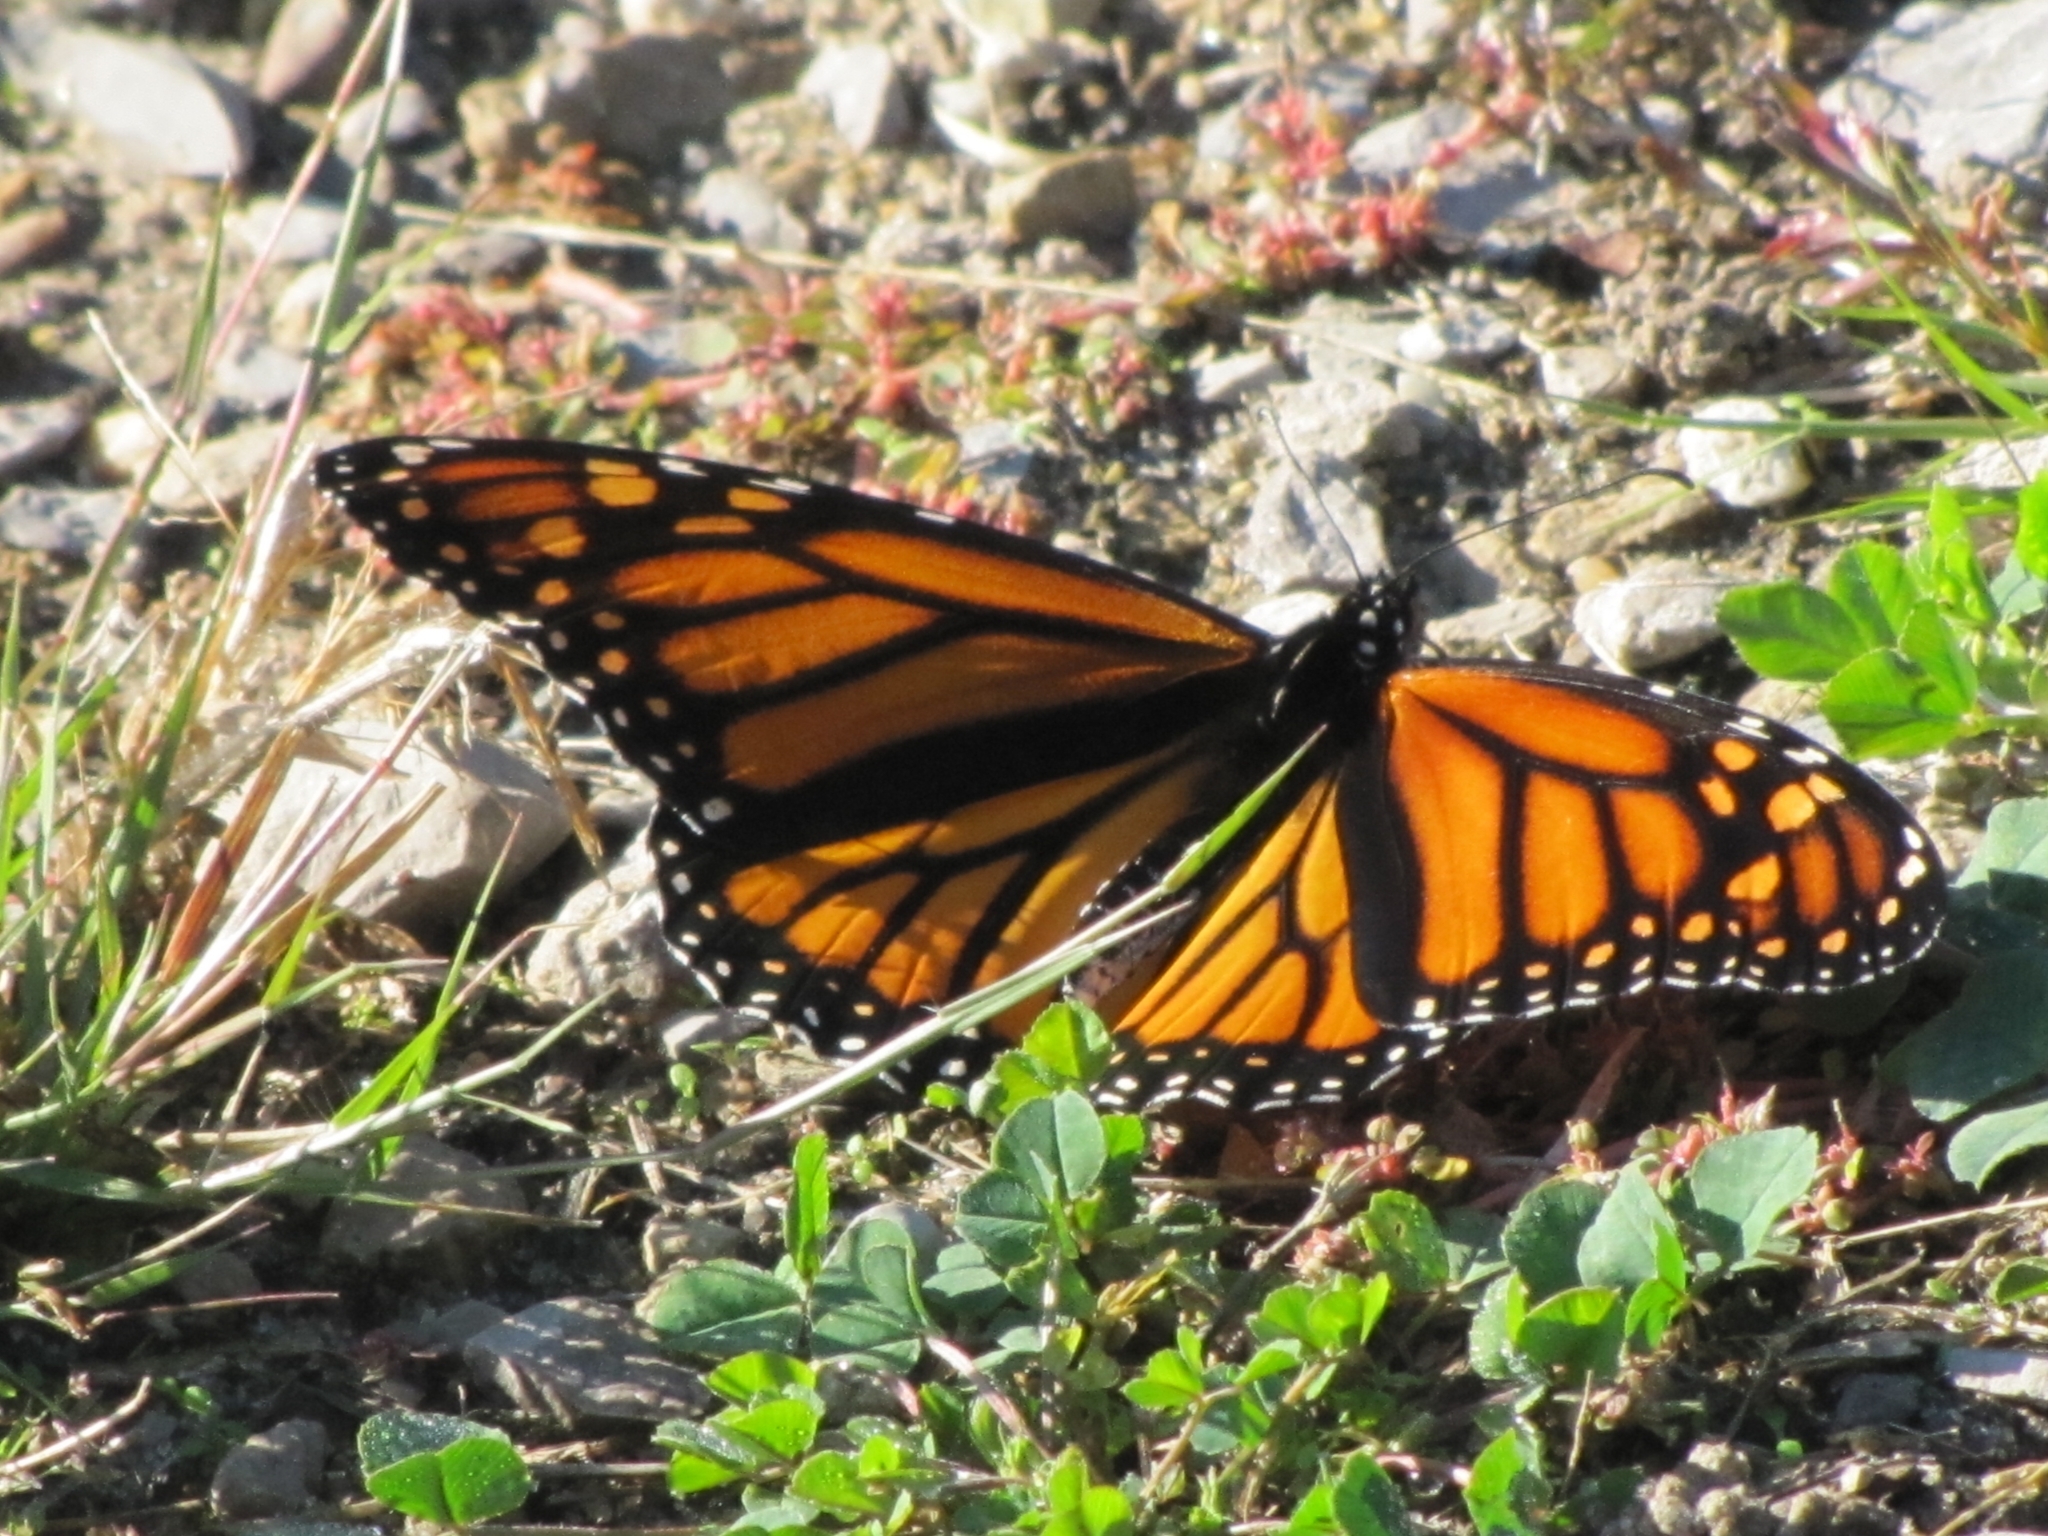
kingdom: Animalia
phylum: Arthropoda
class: Insecta
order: Lepidoptera
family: Nymphalidae
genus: Danaus
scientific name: Danaus plexippus
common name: Monarch
